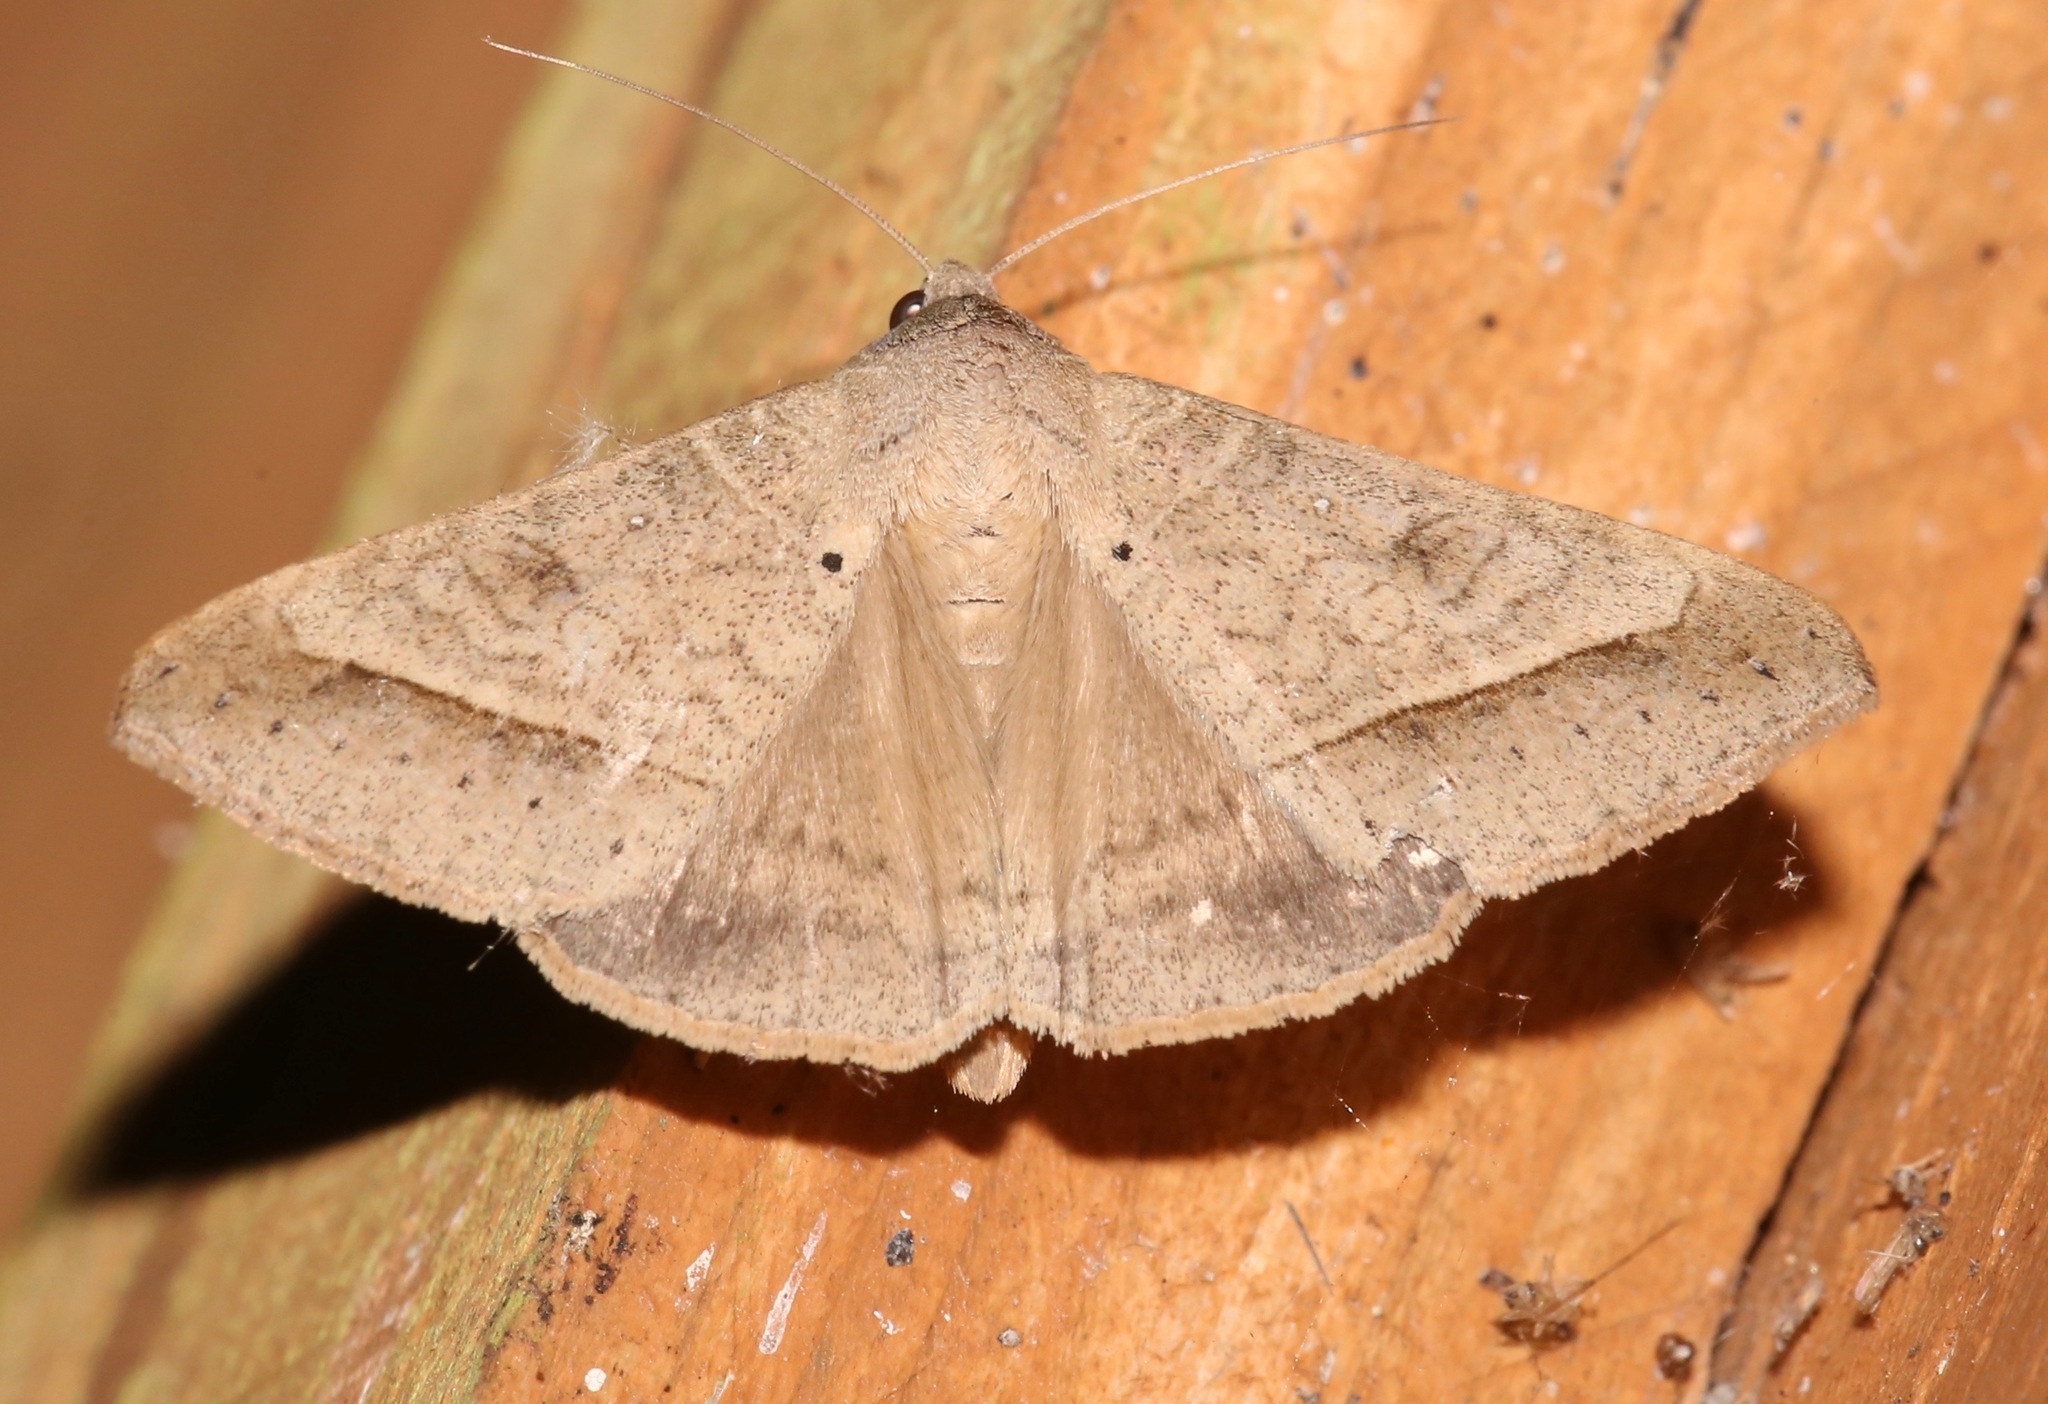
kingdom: Animalia
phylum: Arthropoda
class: Insecta
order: Lepidoptera
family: Erebidae
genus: Mocis
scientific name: Mocis disseverans
